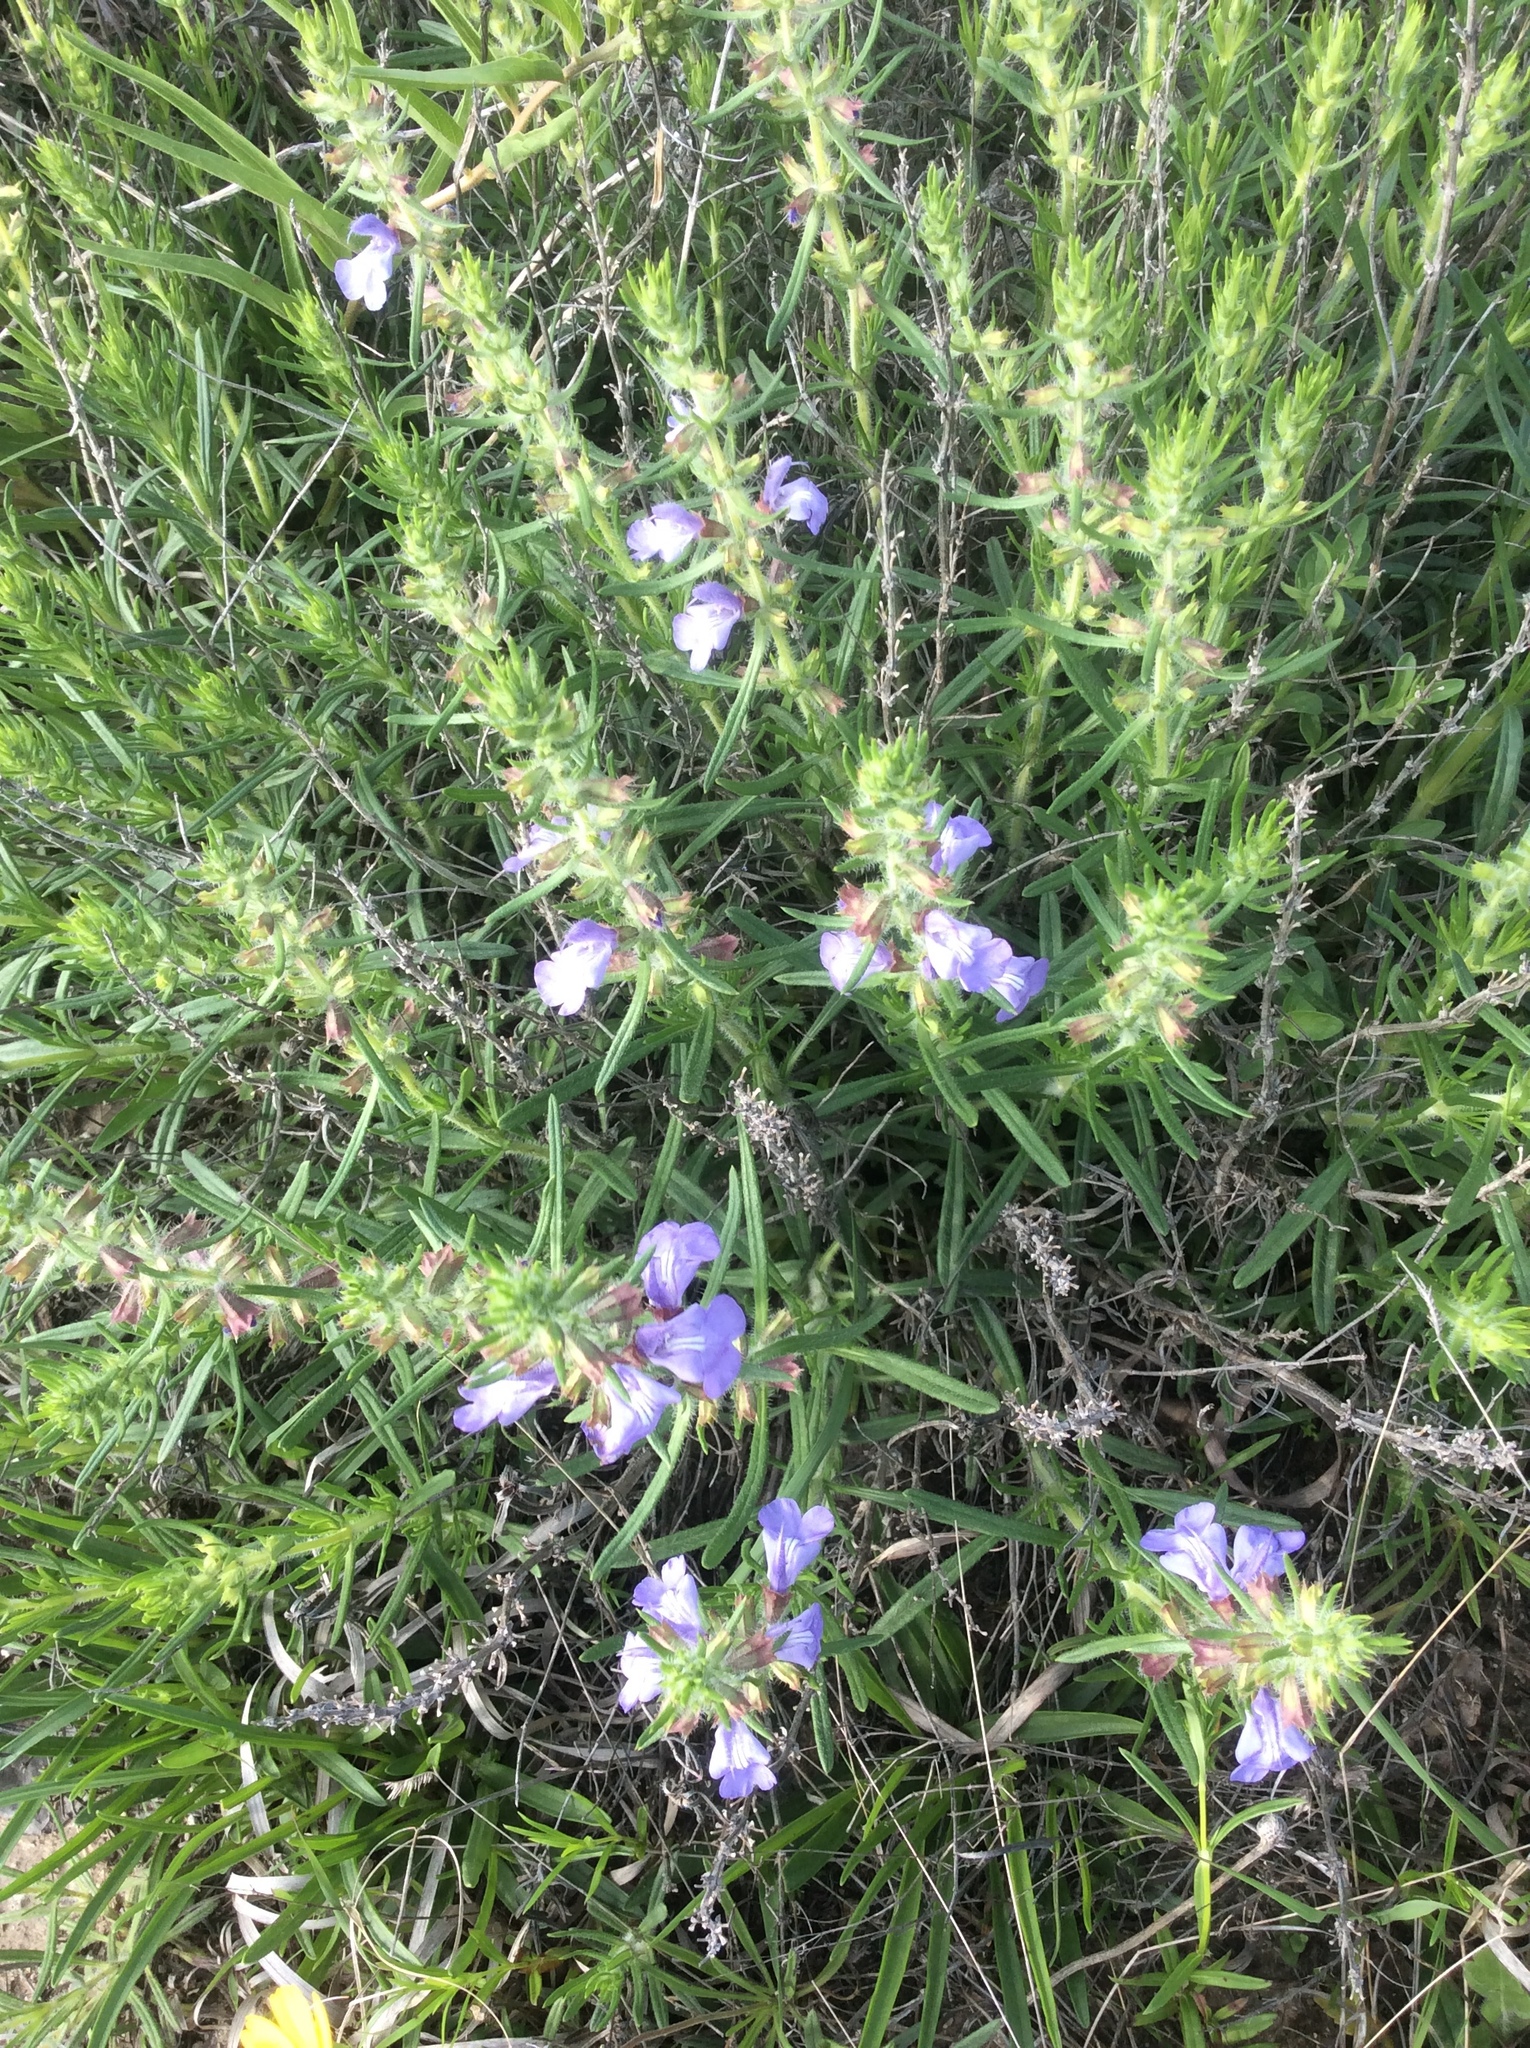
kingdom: Plantae
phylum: Tracheophyta
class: Magnoliopsida
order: Lamiales
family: Lamiaceae
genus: Salvia
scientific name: Salvia engelmannii
